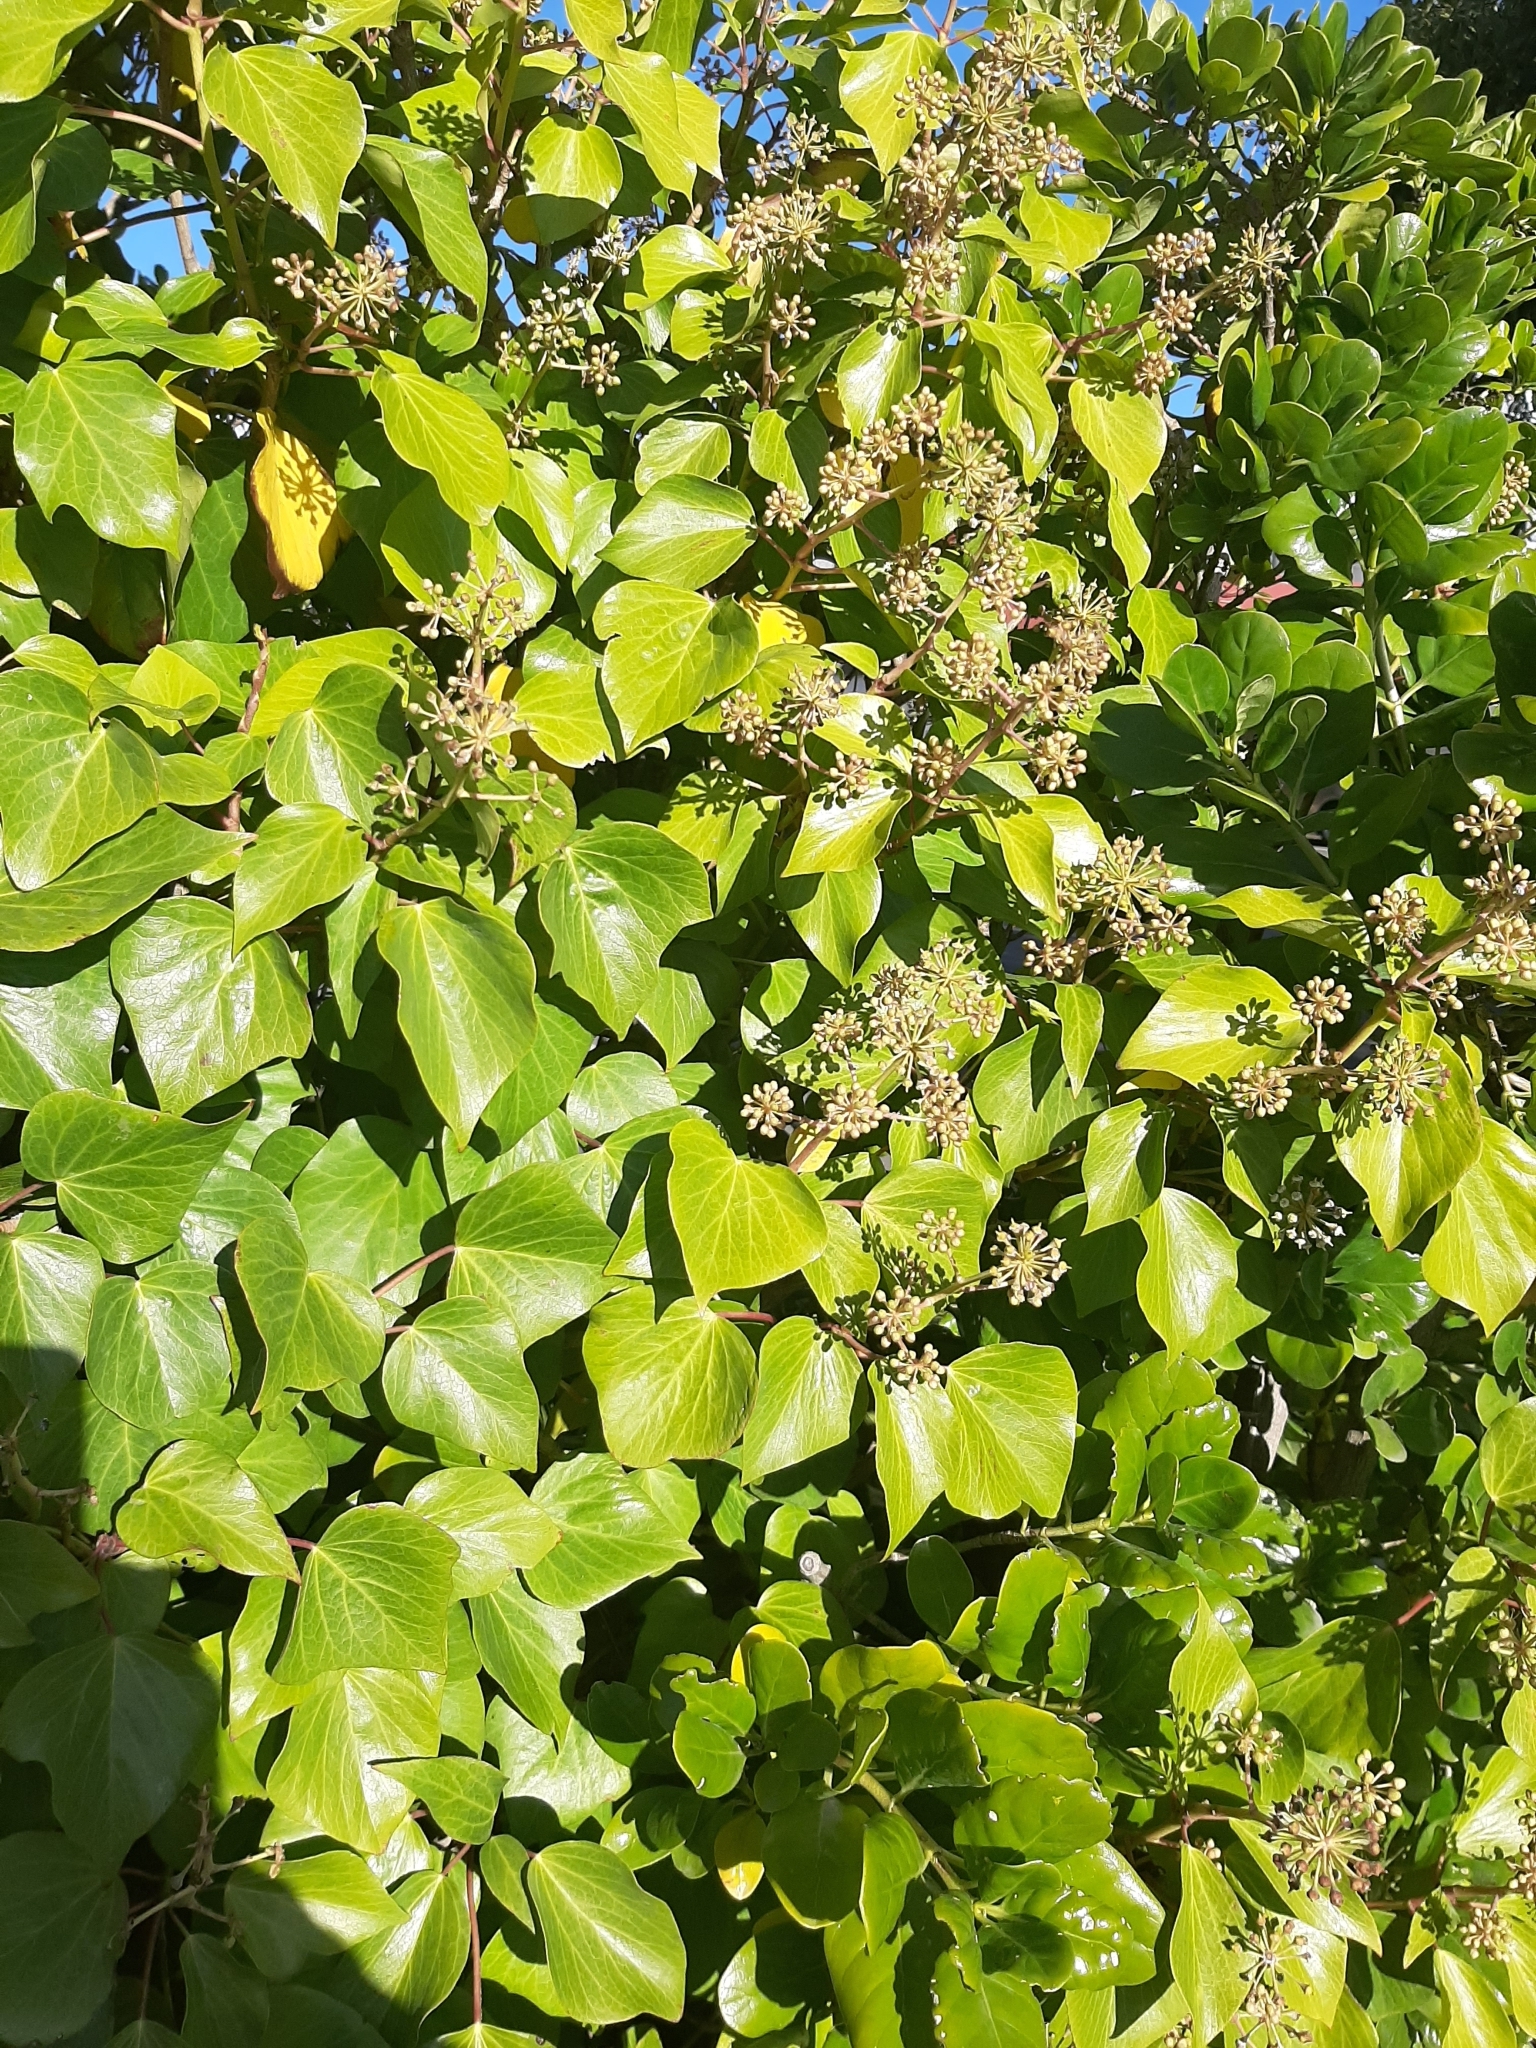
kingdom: Plantae
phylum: Tracheophyta
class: Magnoliopsida
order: Apiales
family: Araliaceae
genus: Hedera
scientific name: Hedera helix
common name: Ivy
